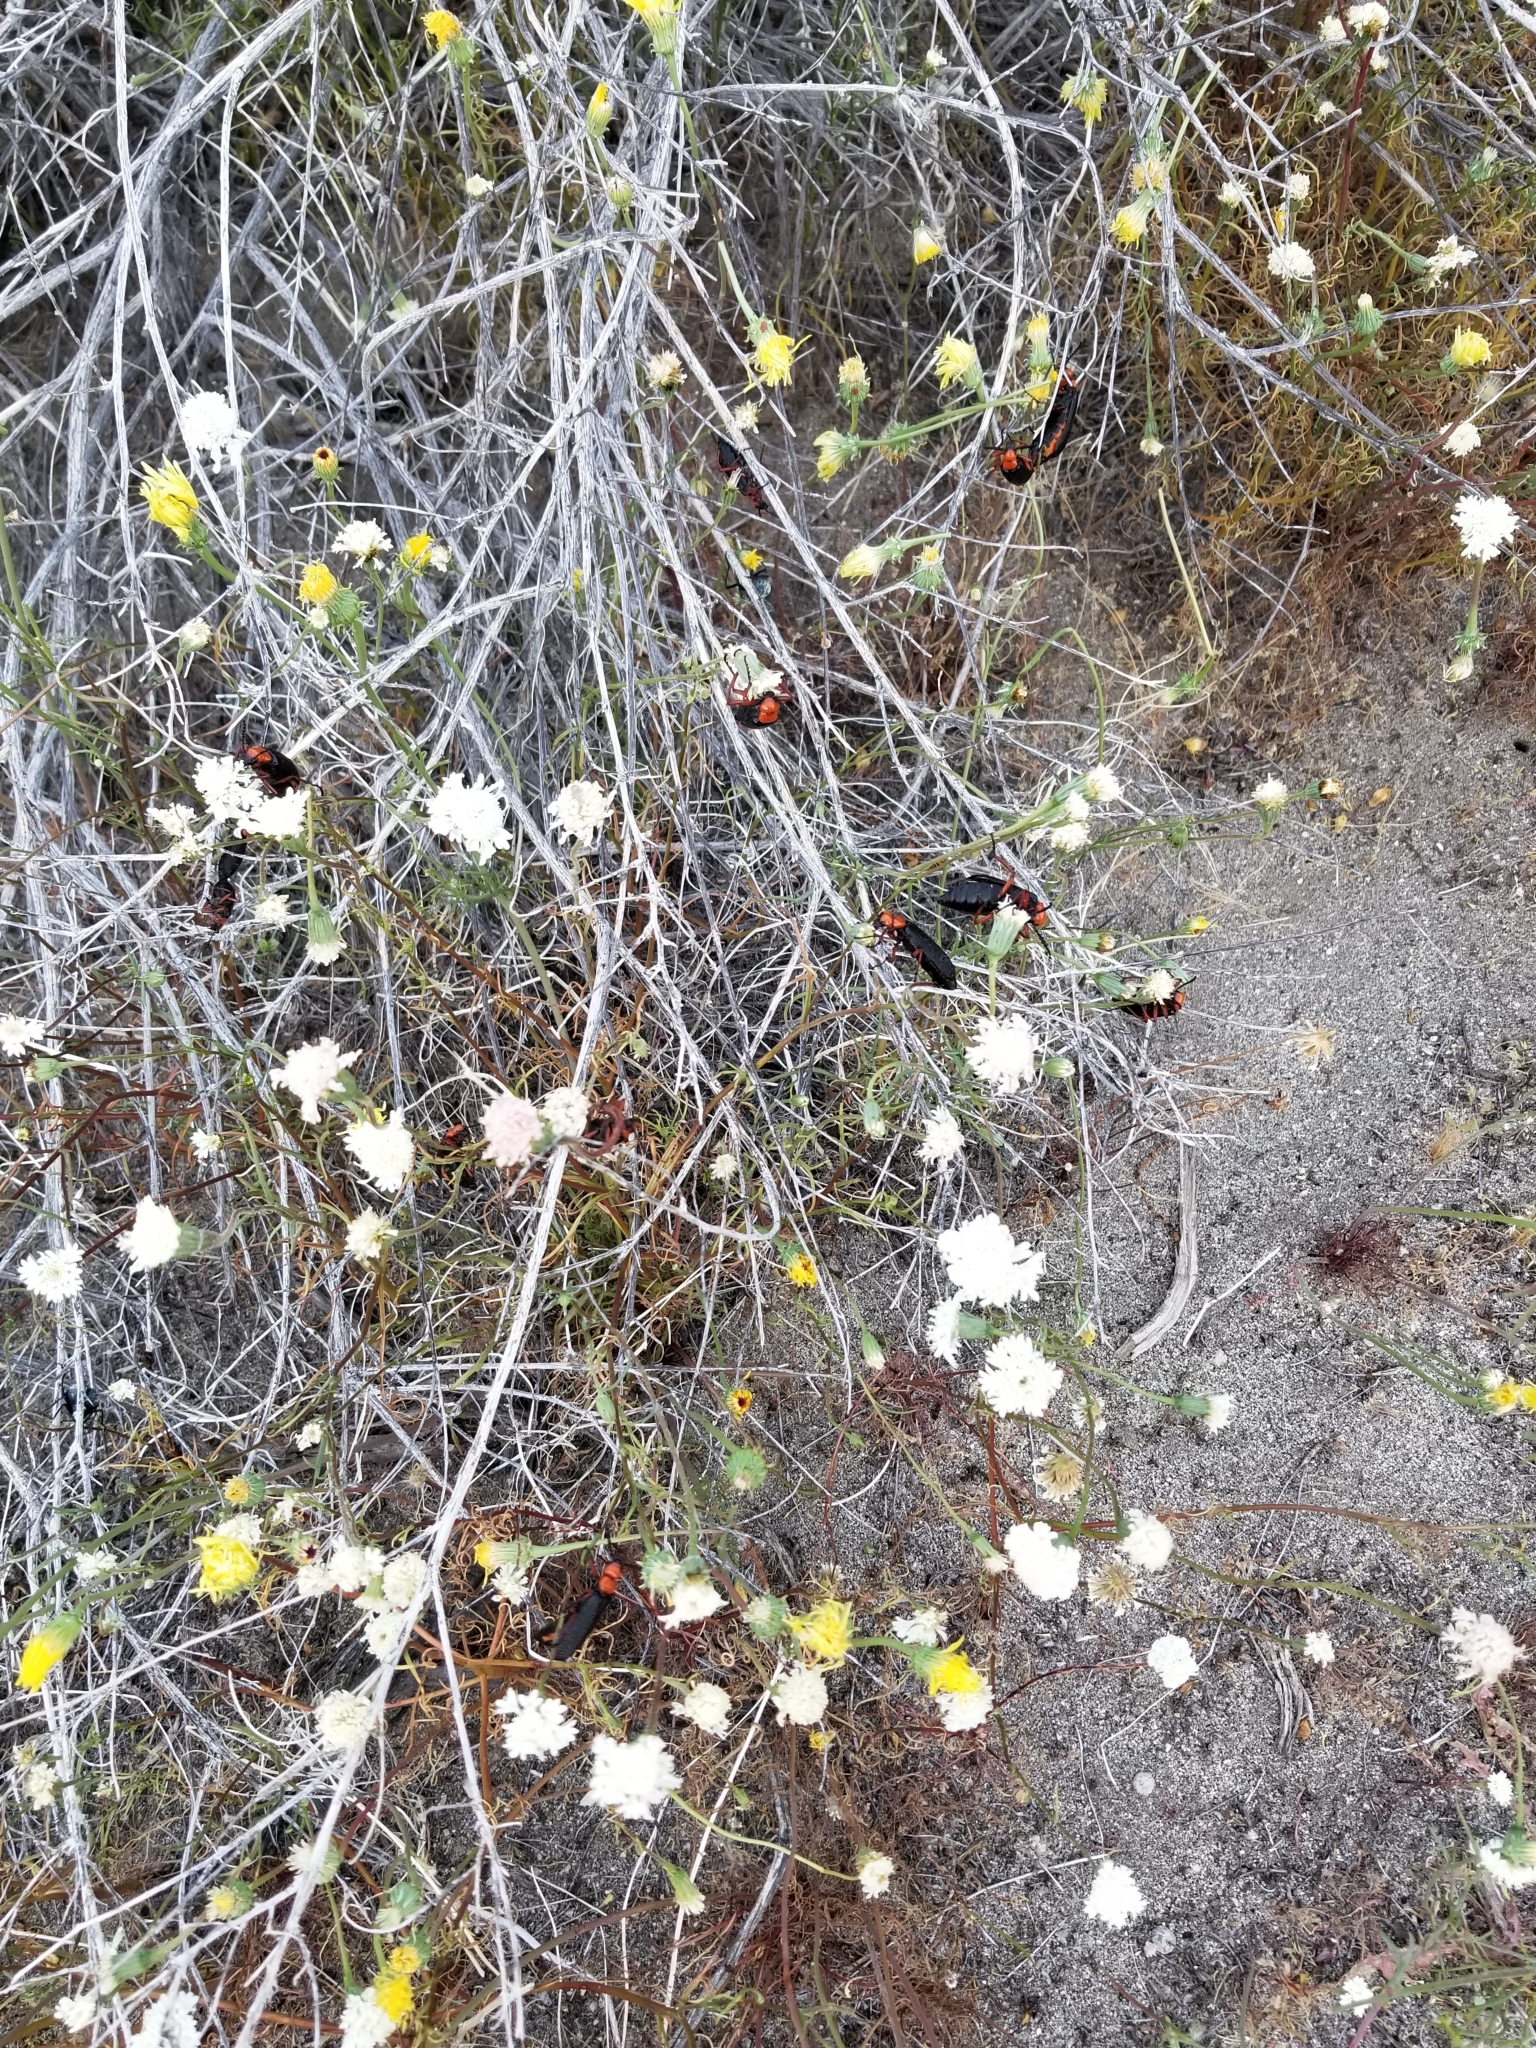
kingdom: Animalia
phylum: Arthropoda
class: Insecta
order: Coleoptera
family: Meloidae
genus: Lytta
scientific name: Lytta magister
